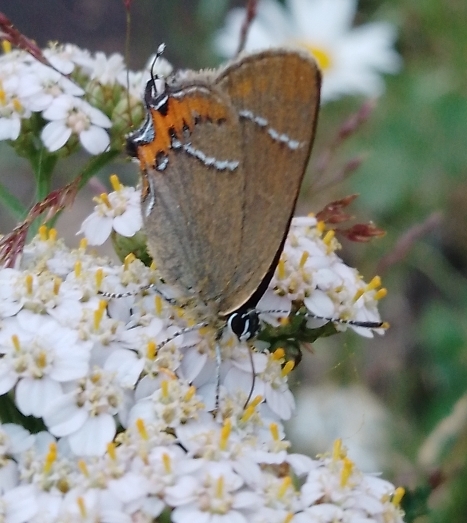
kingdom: Animalia
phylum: Arthropoda
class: Insecta
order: Lepidoptera
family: Lycaenidae
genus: Satyrium
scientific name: Satyrium prunoides
